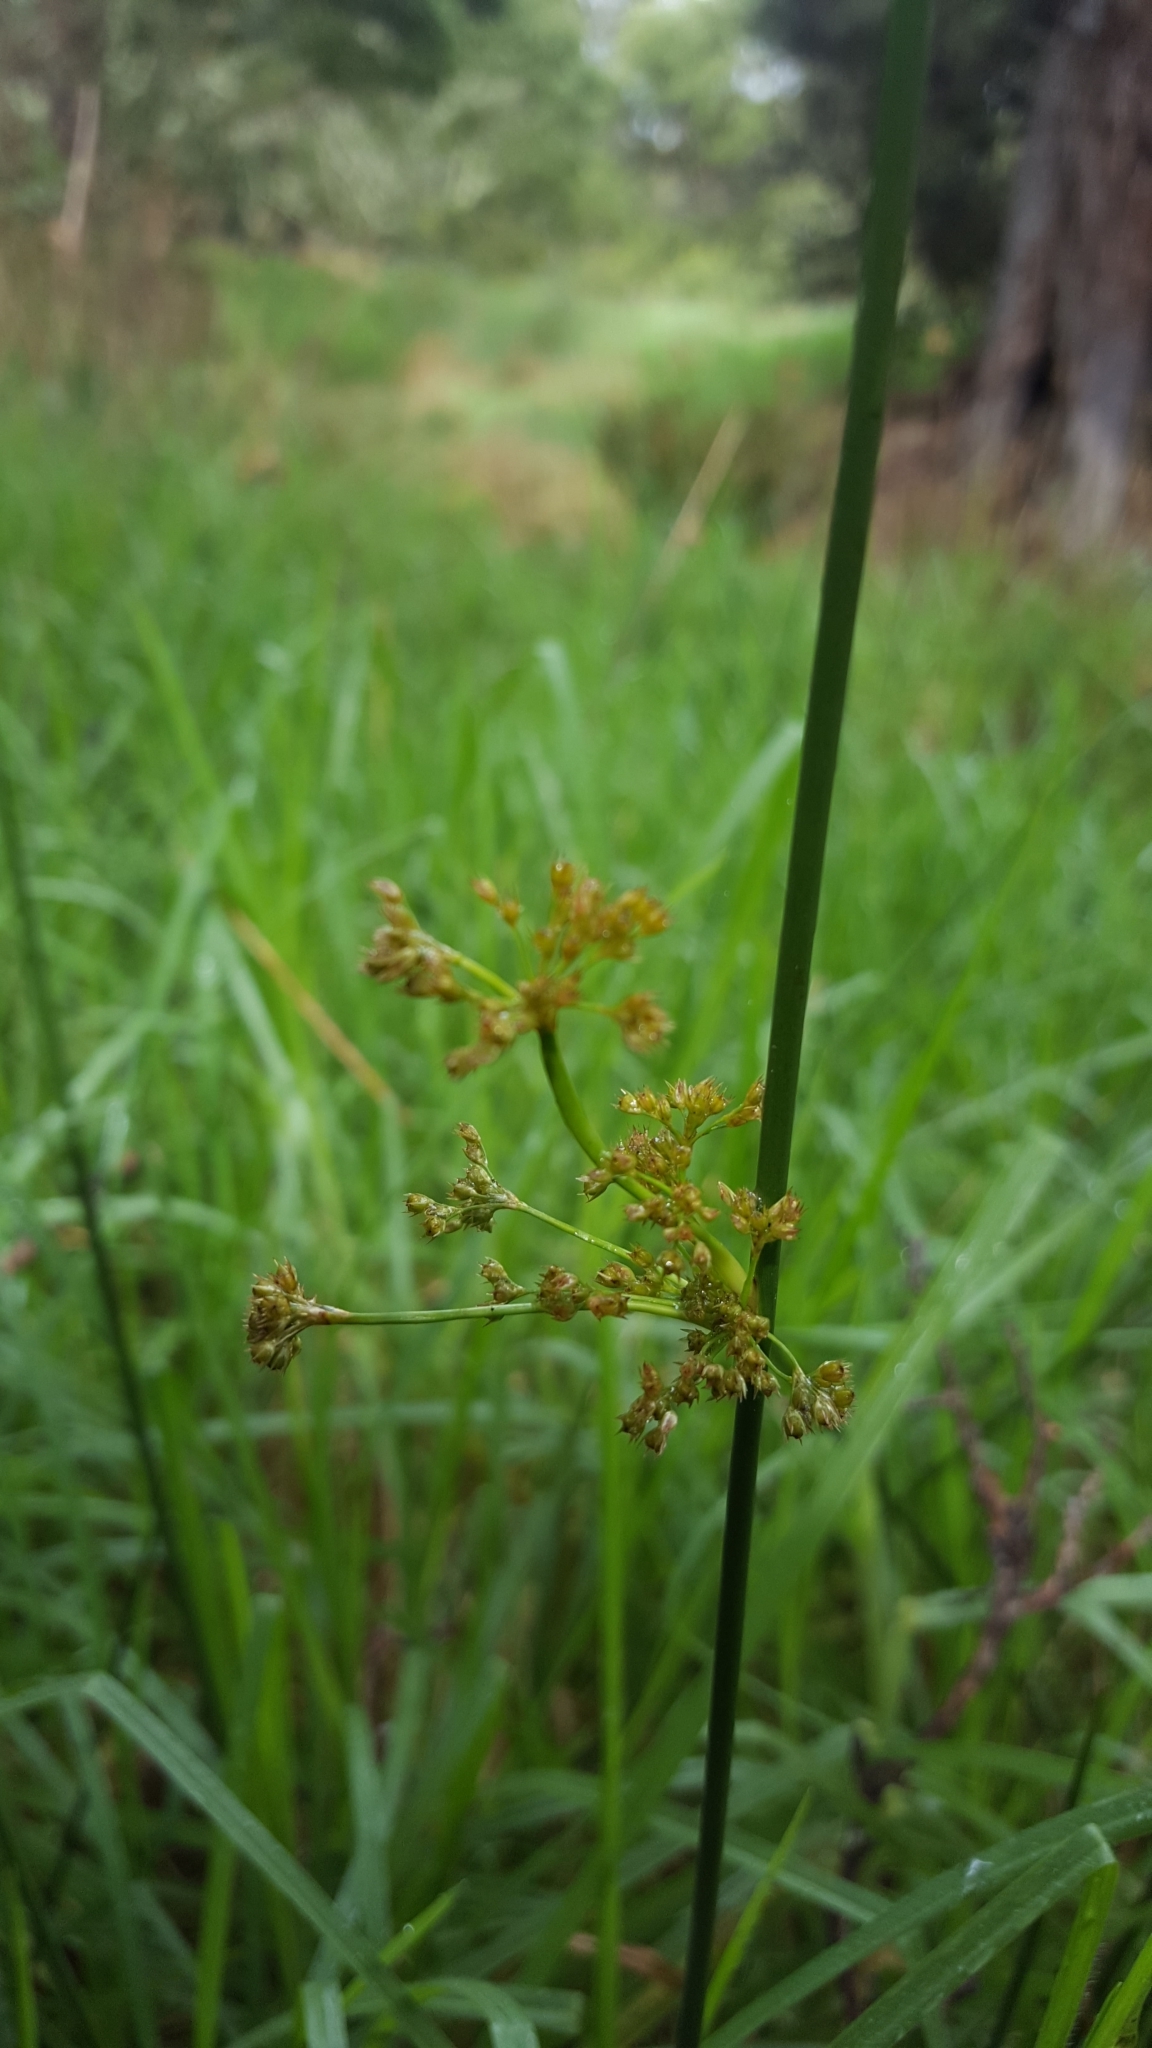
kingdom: Plantae
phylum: Tracheophyta
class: Liliopsida
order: Poales
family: Juncaceae
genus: Juncus
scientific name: Juncus effusus
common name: Soft rush
